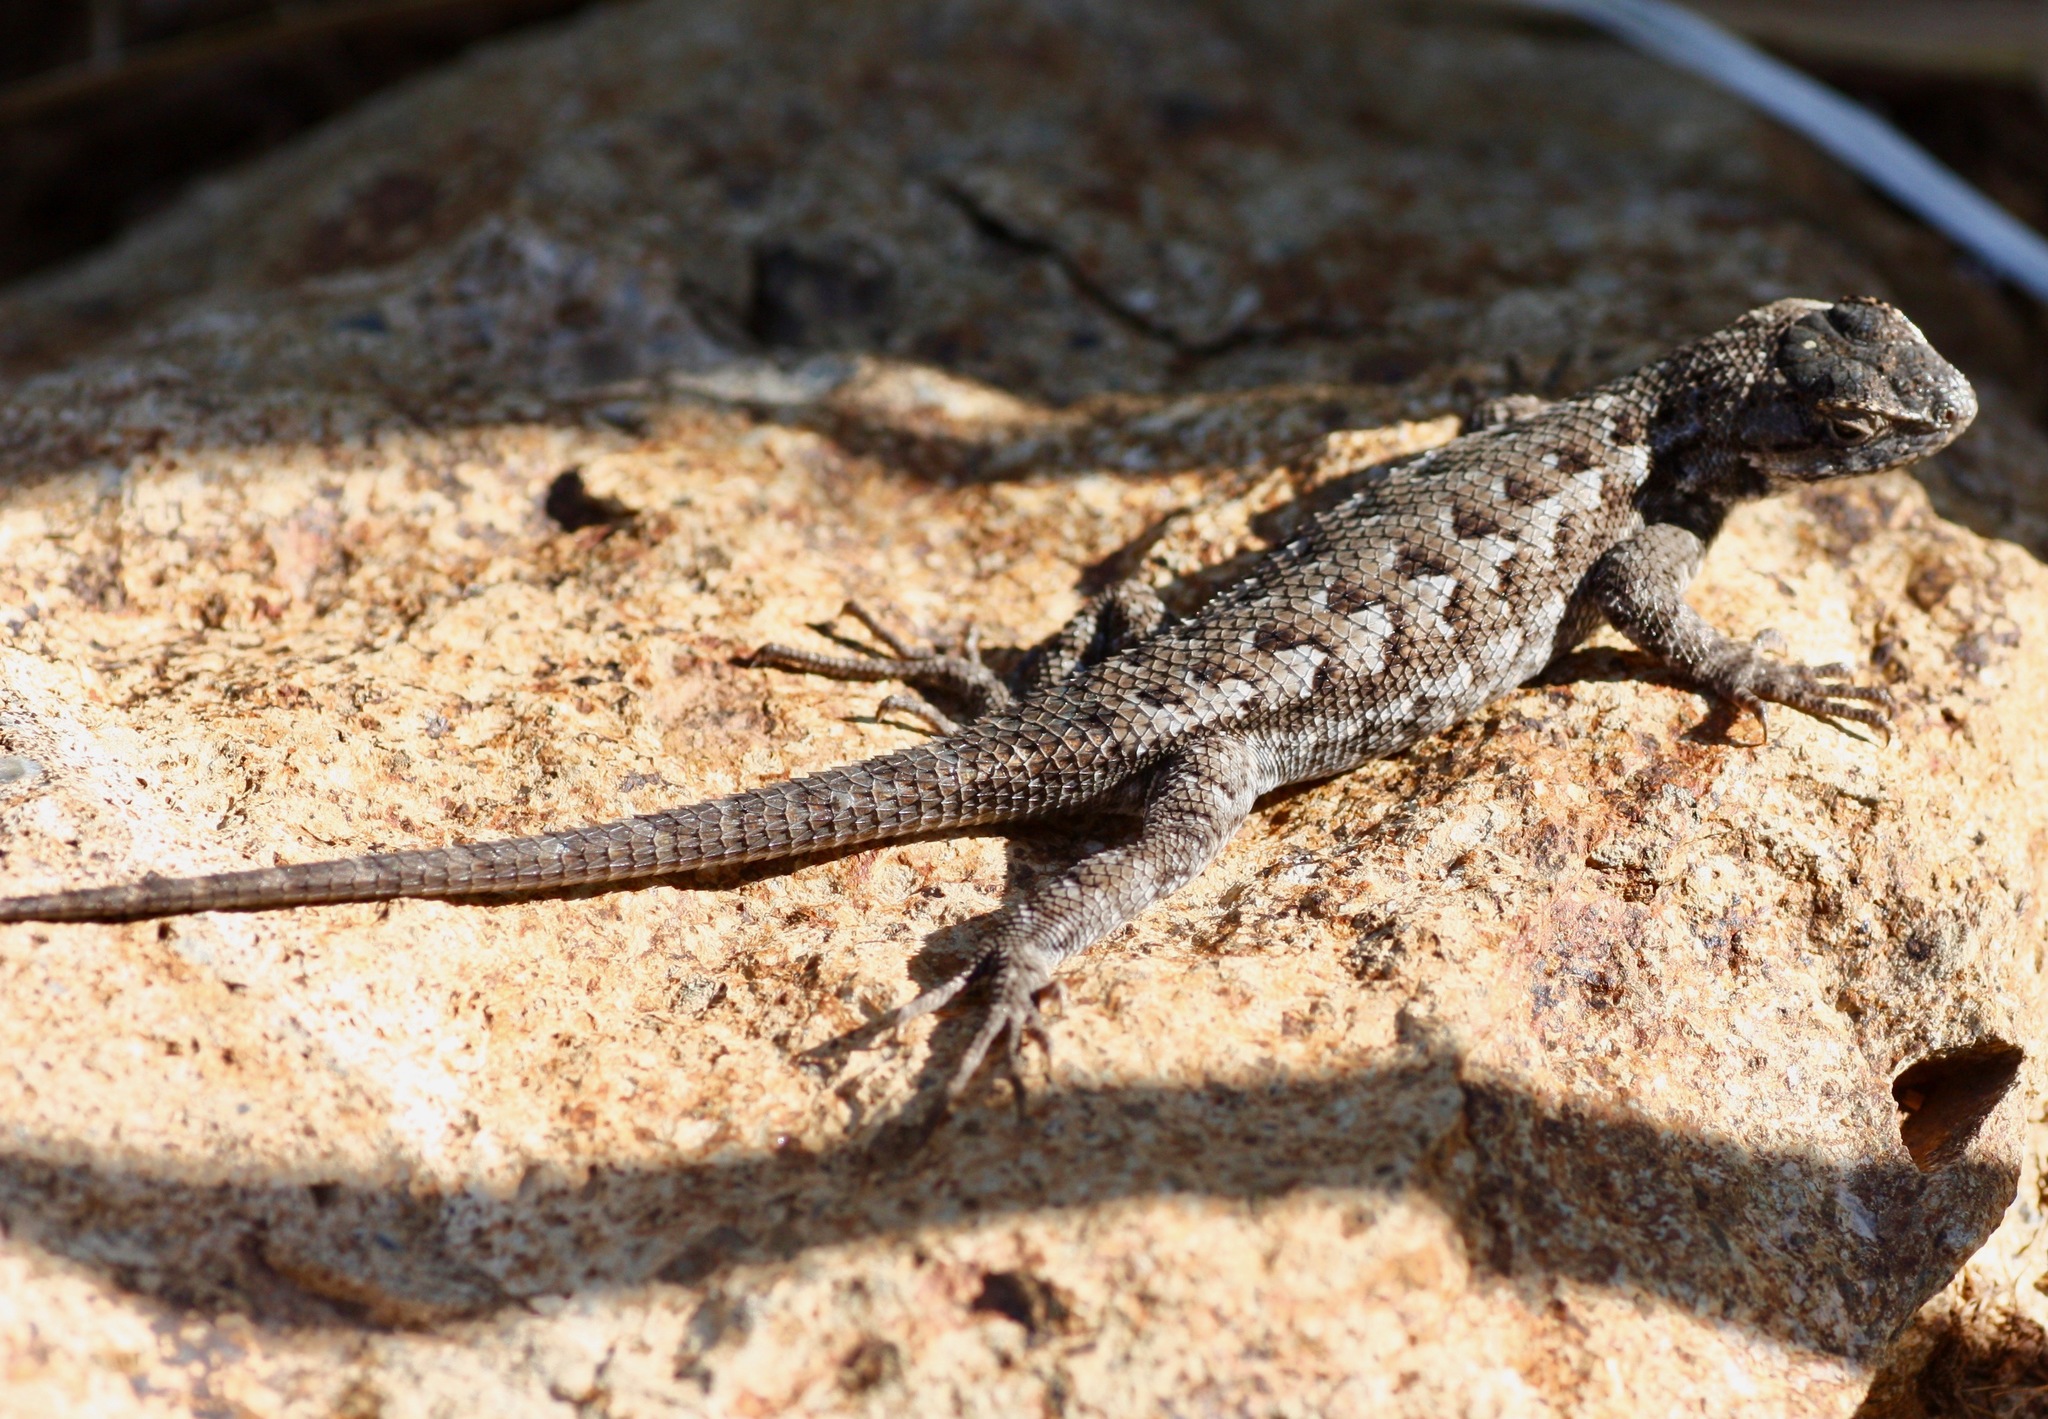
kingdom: Animalia
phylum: Chordata
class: Squamata
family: Phrynosomatidae
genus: Sceloporus
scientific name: Sceloporus occidentalis
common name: Western fence lizard
